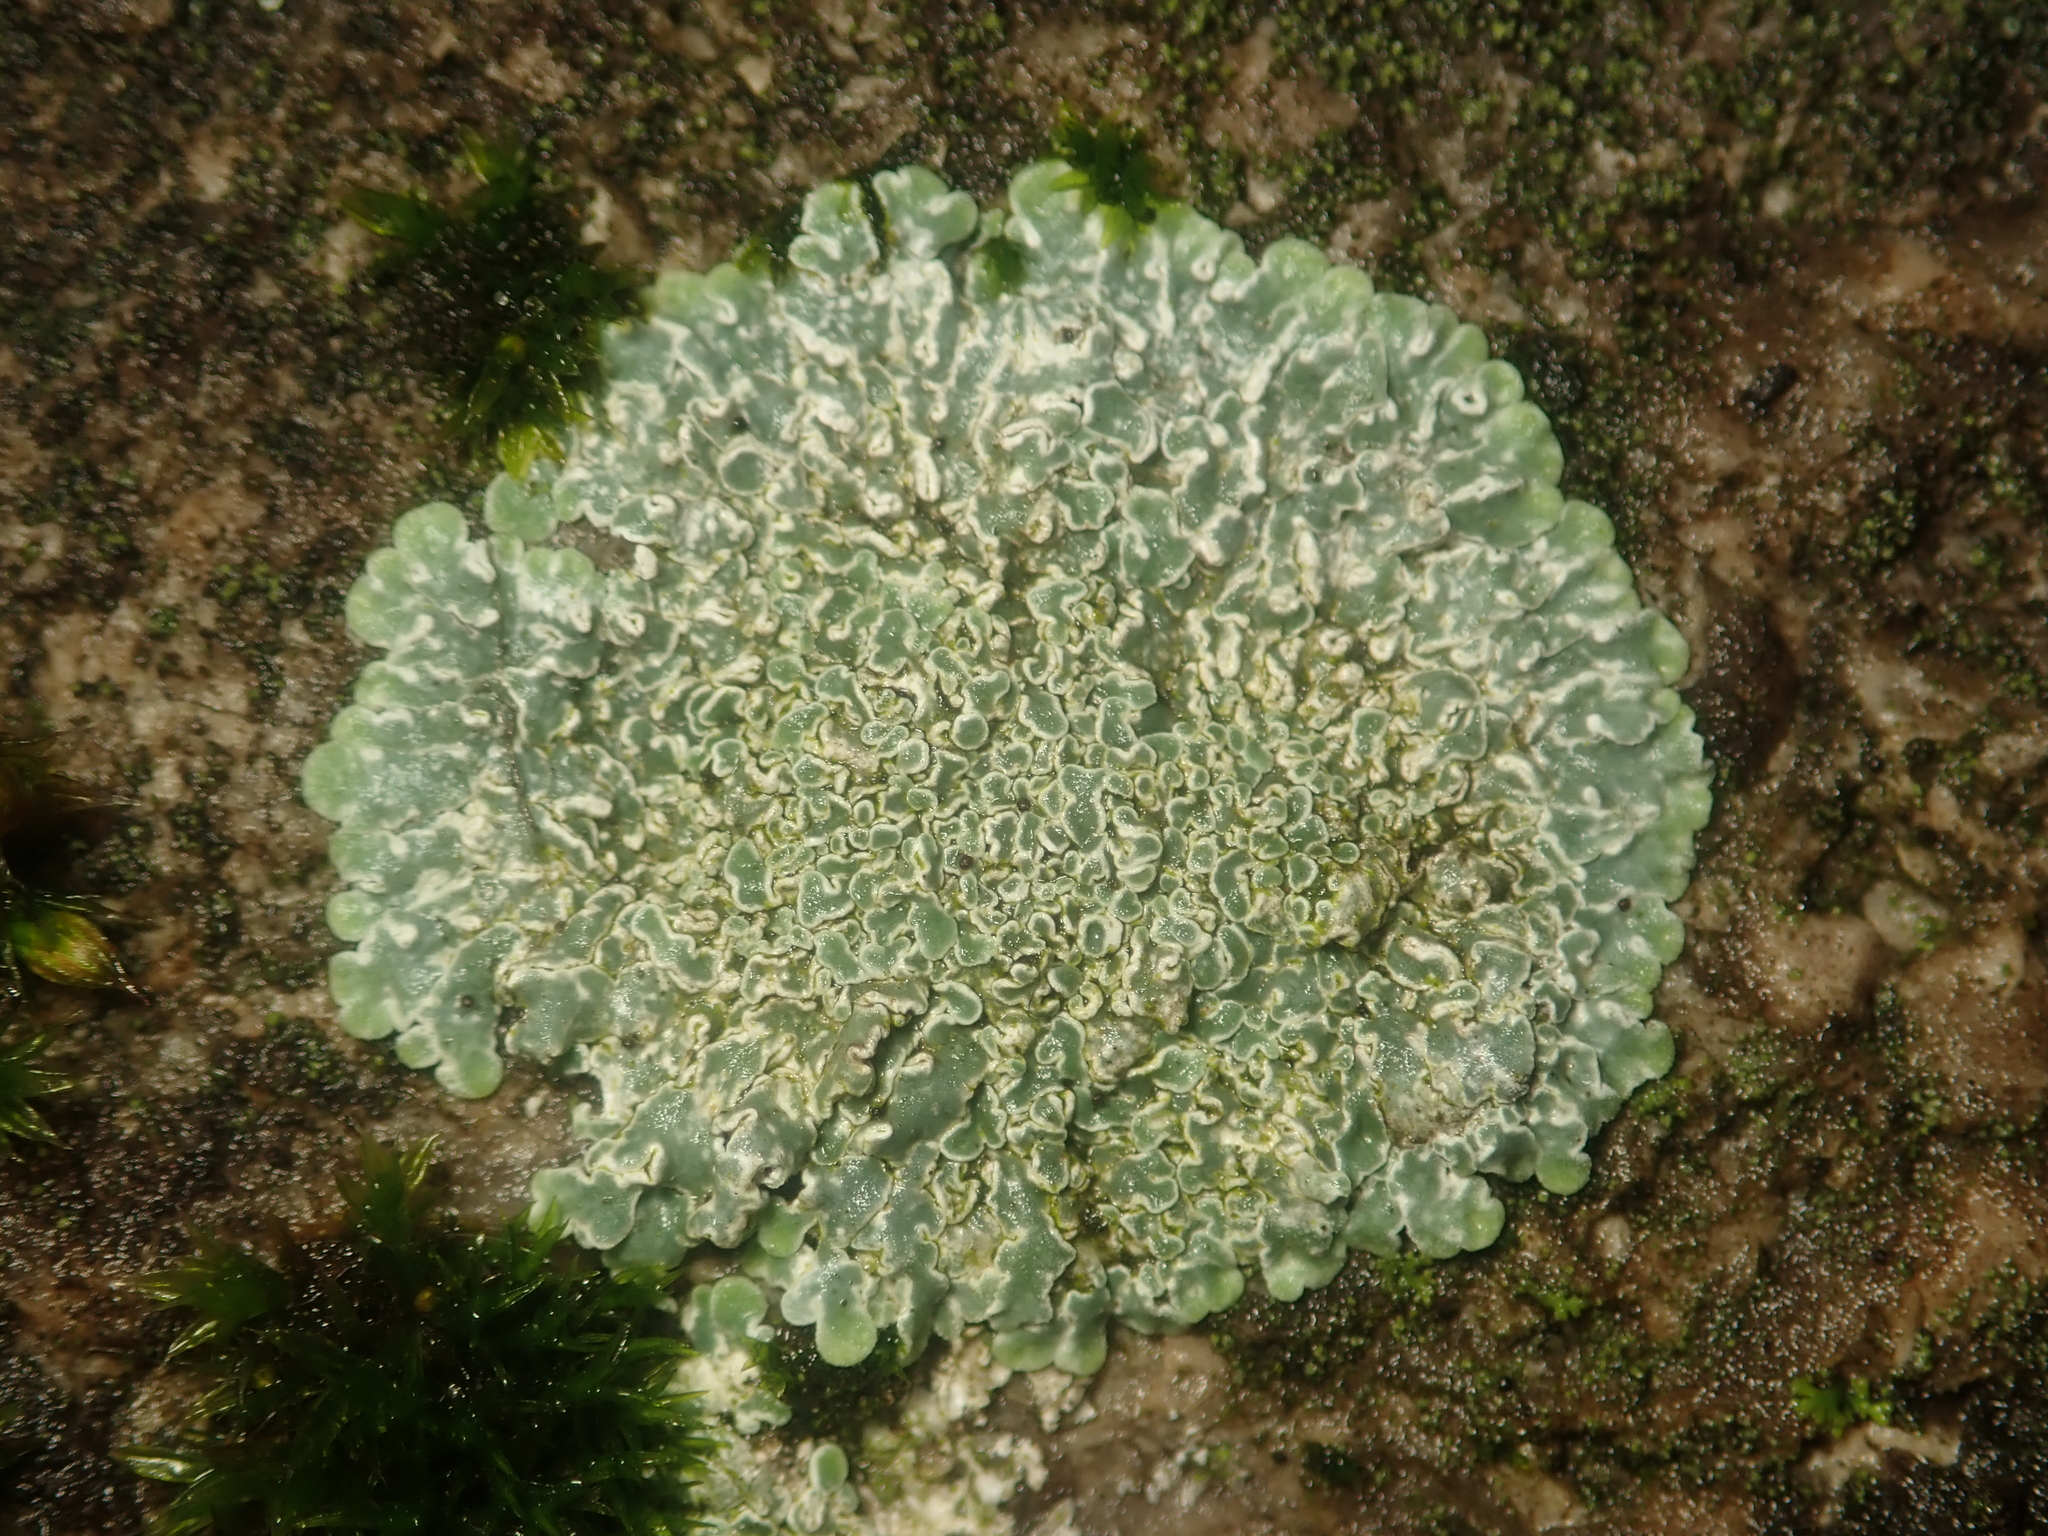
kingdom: Fungi
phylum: Ascomycota
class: Lecanoromycetes
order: Lecanorales
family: Lecanoraceae
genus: Protoparmeliopsis
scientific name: Protoparmeliopsis muralis
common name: Stonewall rim lichen
